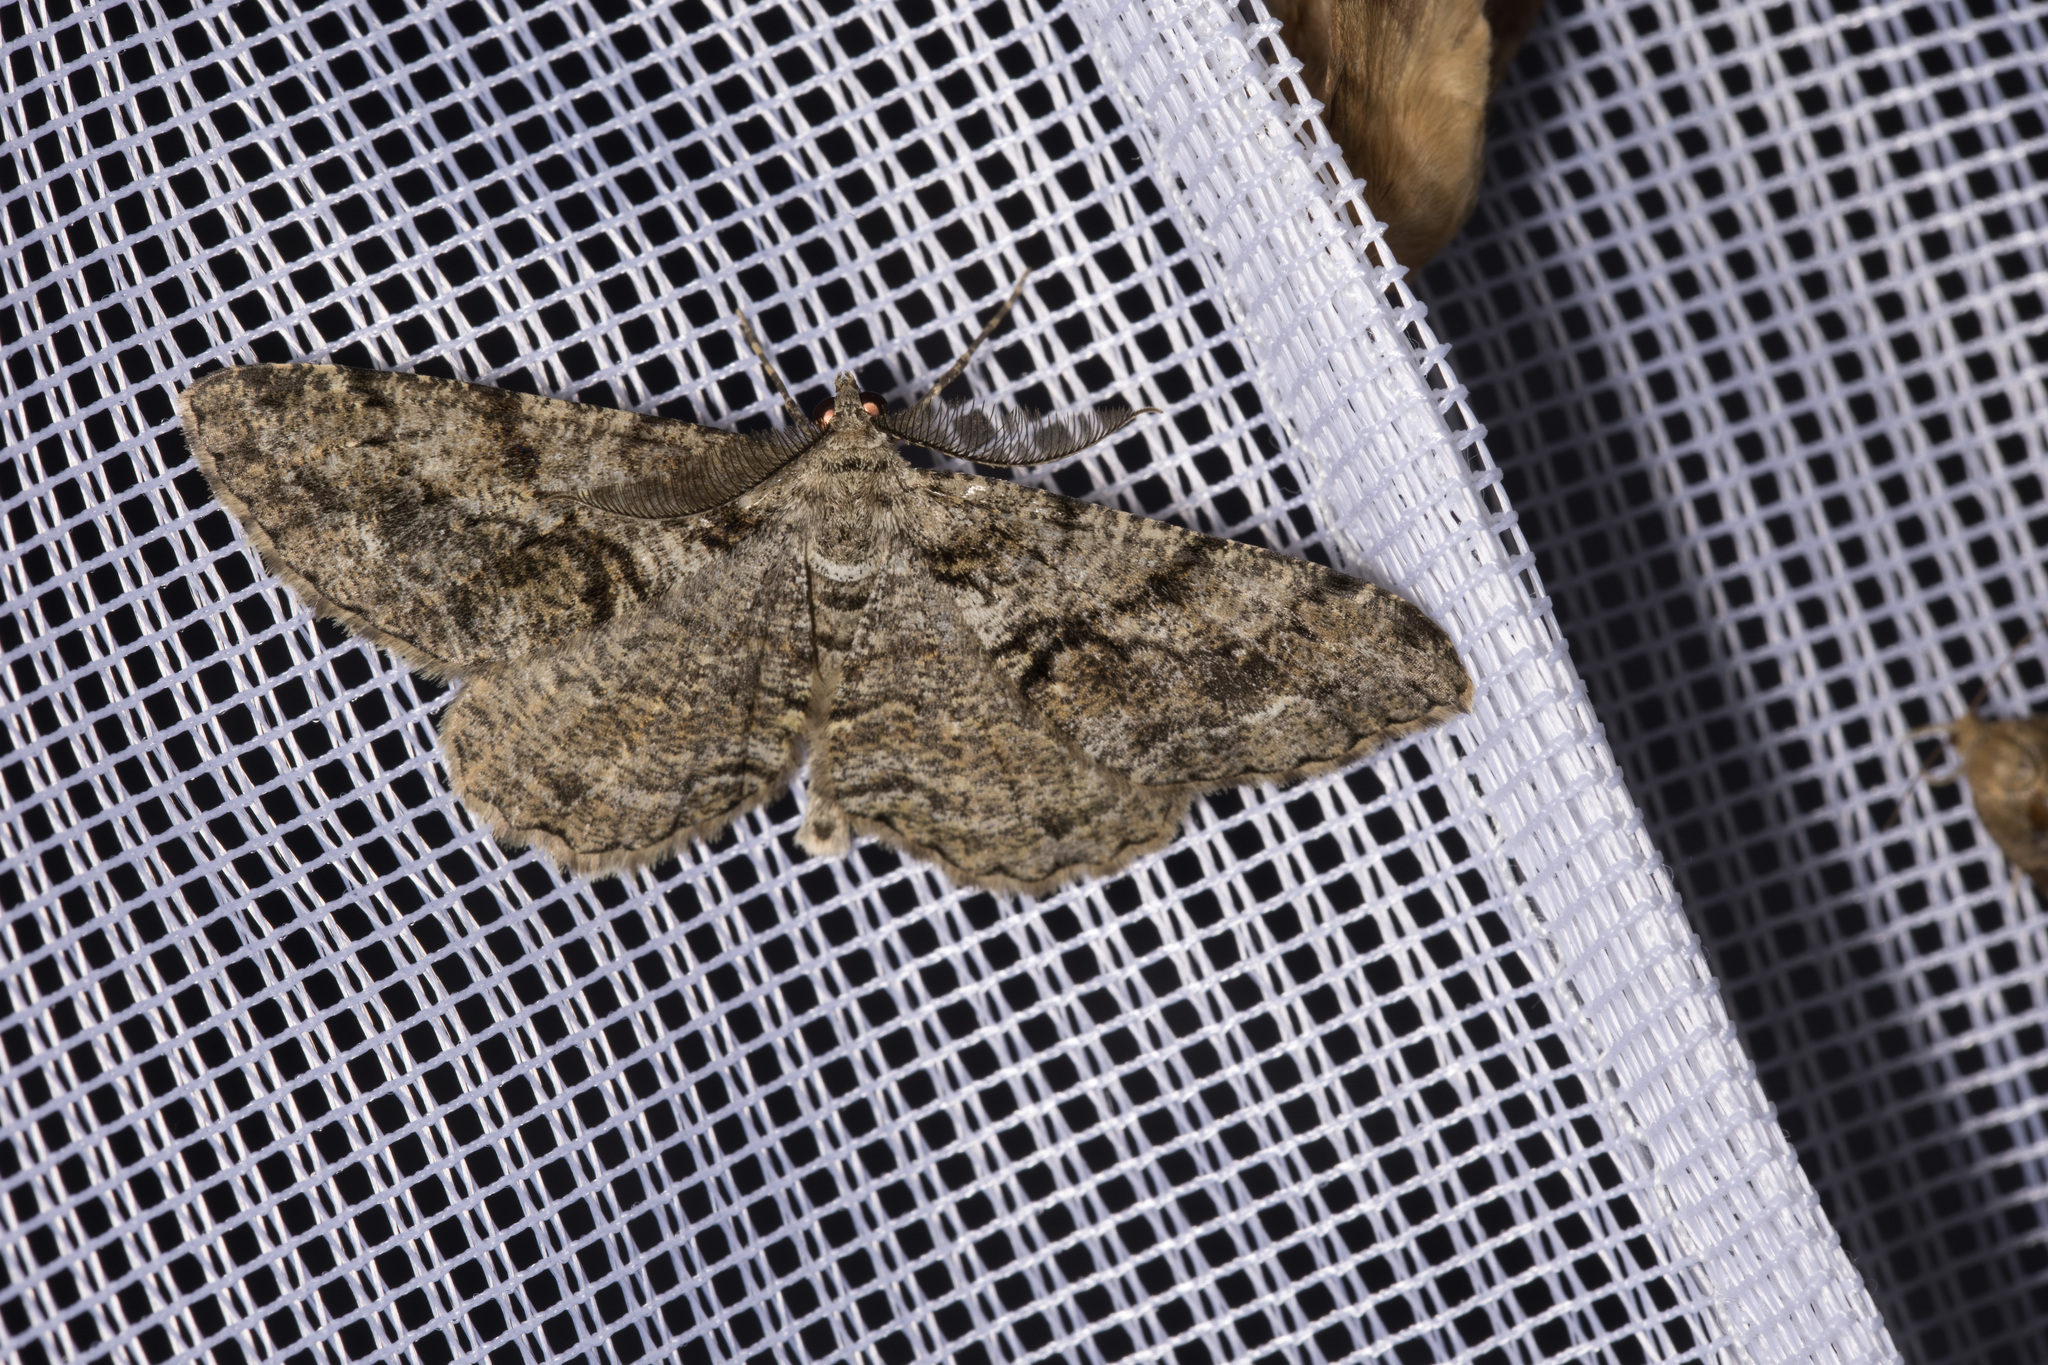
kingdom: Animalia
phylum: Arthropoda
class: Insecta
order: Lepidoptera
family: Geometridae
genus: Peribatodes
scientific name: Peribatodes secundaria
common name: Feathered beauty
